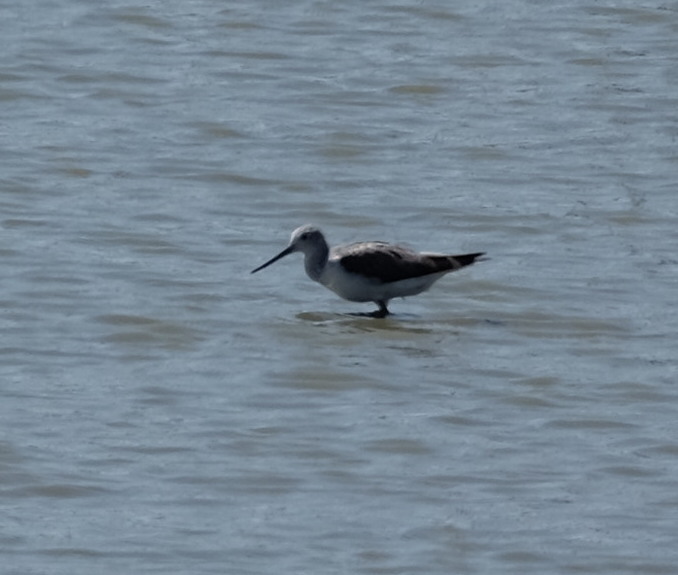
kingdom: Animalia
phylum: Chordata
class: Aves
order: Charadriiformes
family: Scolopacidae
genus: Tringa
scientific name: Tringa nebularia
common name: Common greenshank
